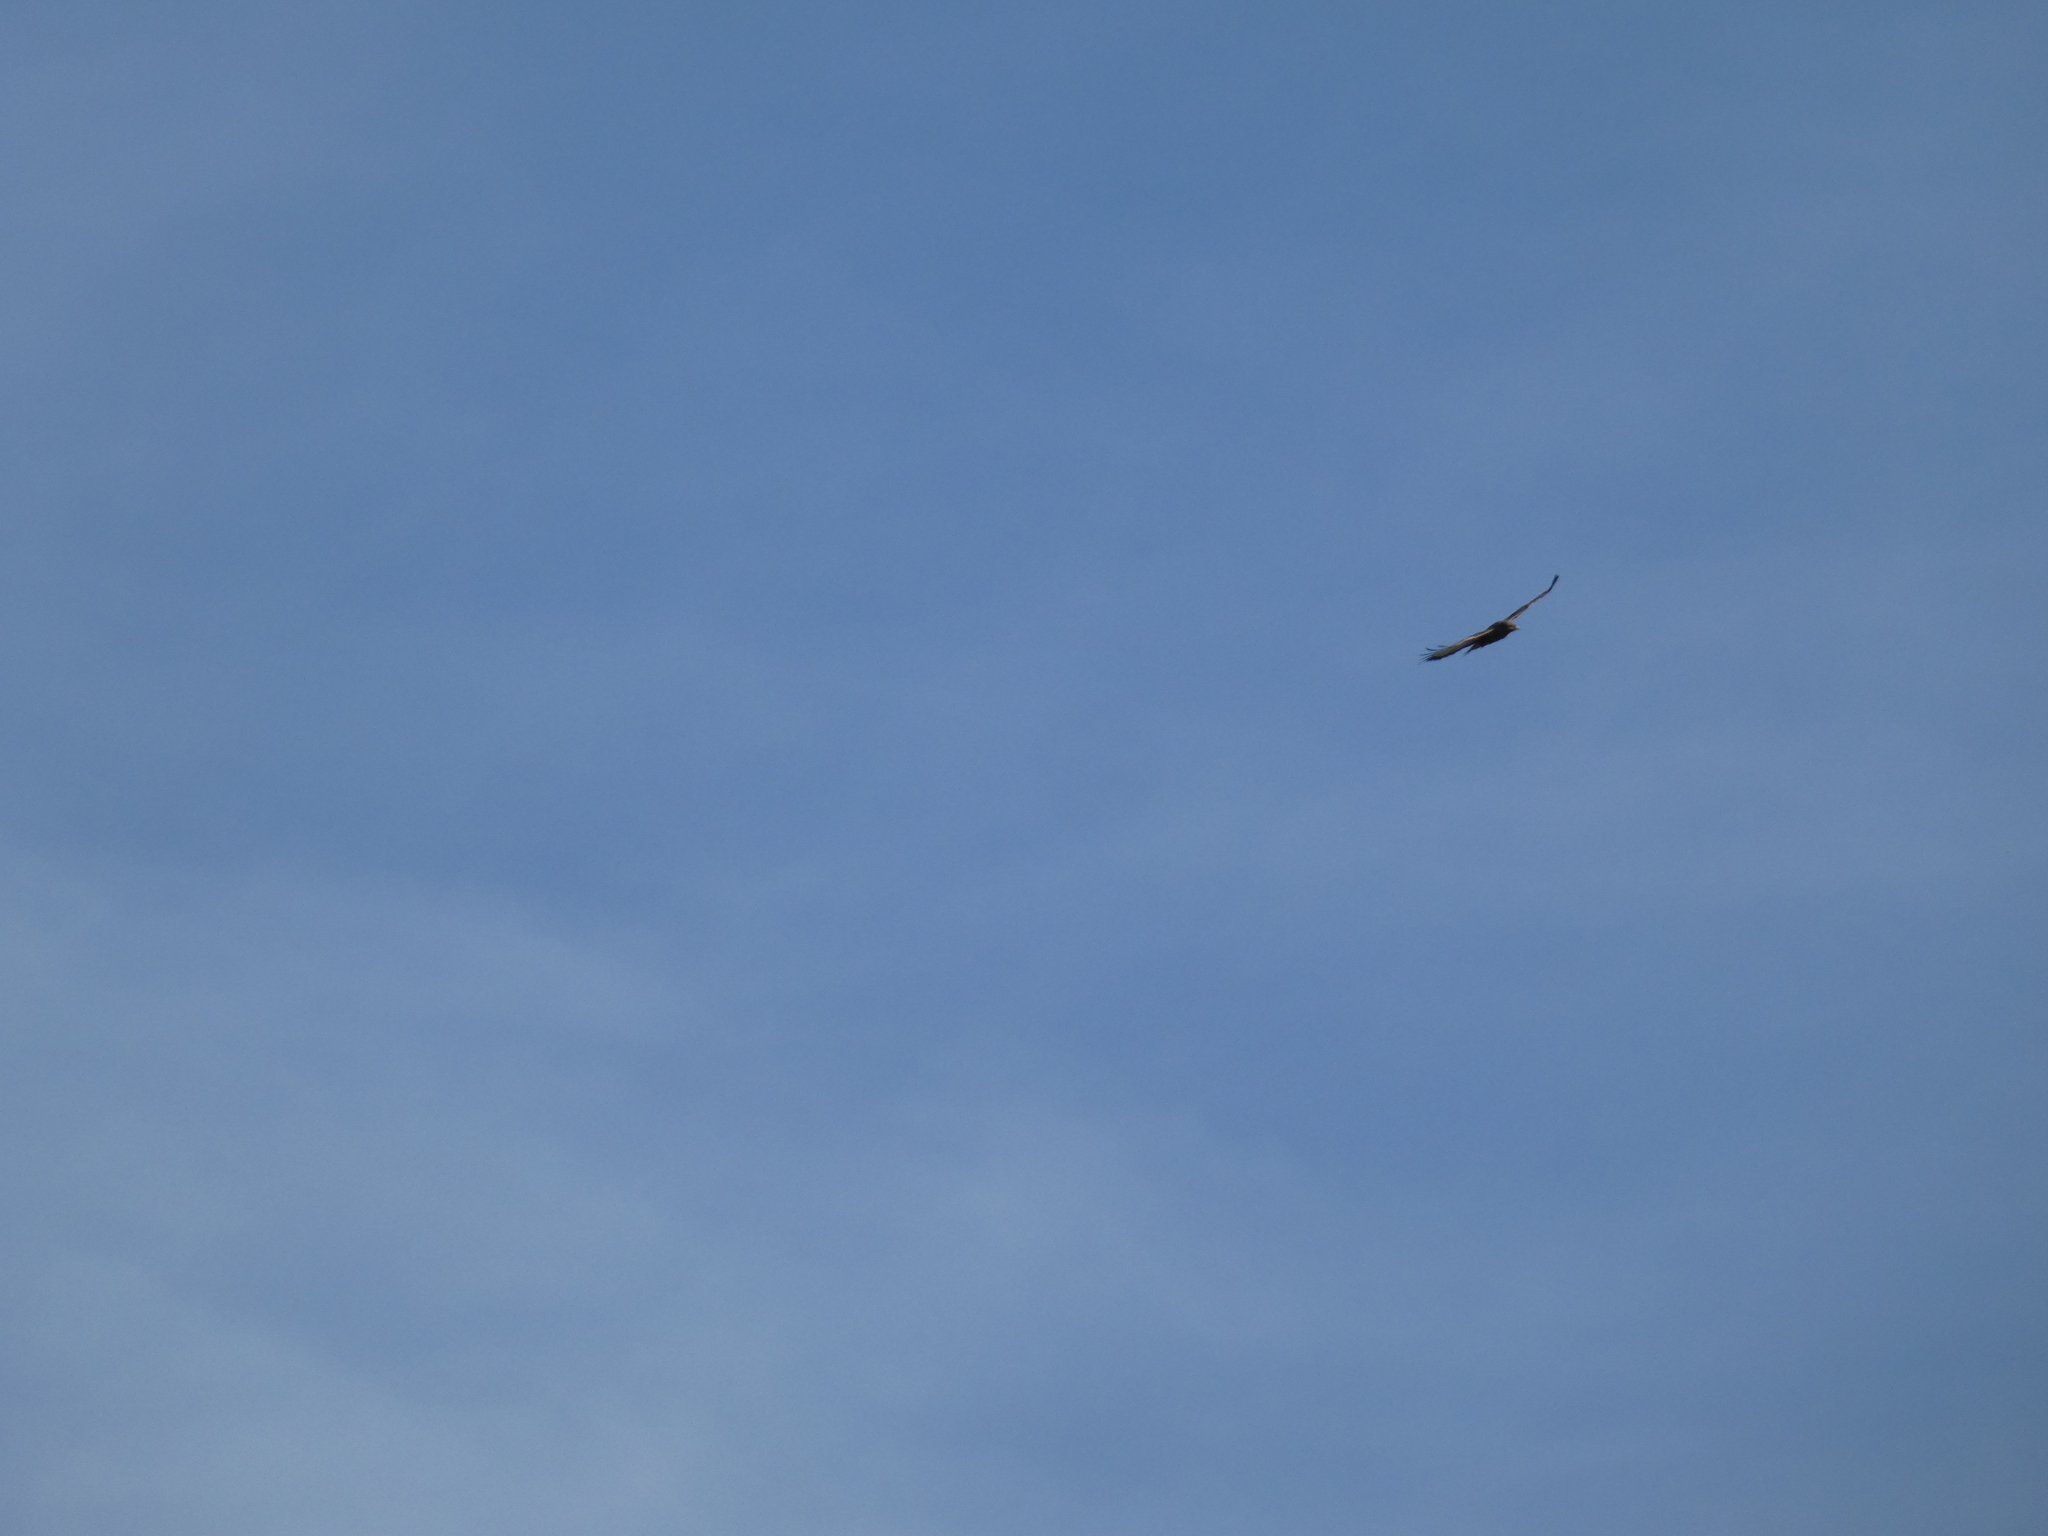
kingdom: Animalia
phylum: Chordata
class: Aves
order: Accipitriformes
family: Accipitridae
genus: Buteo
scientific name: Buteo buteo
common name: Common buzzard
